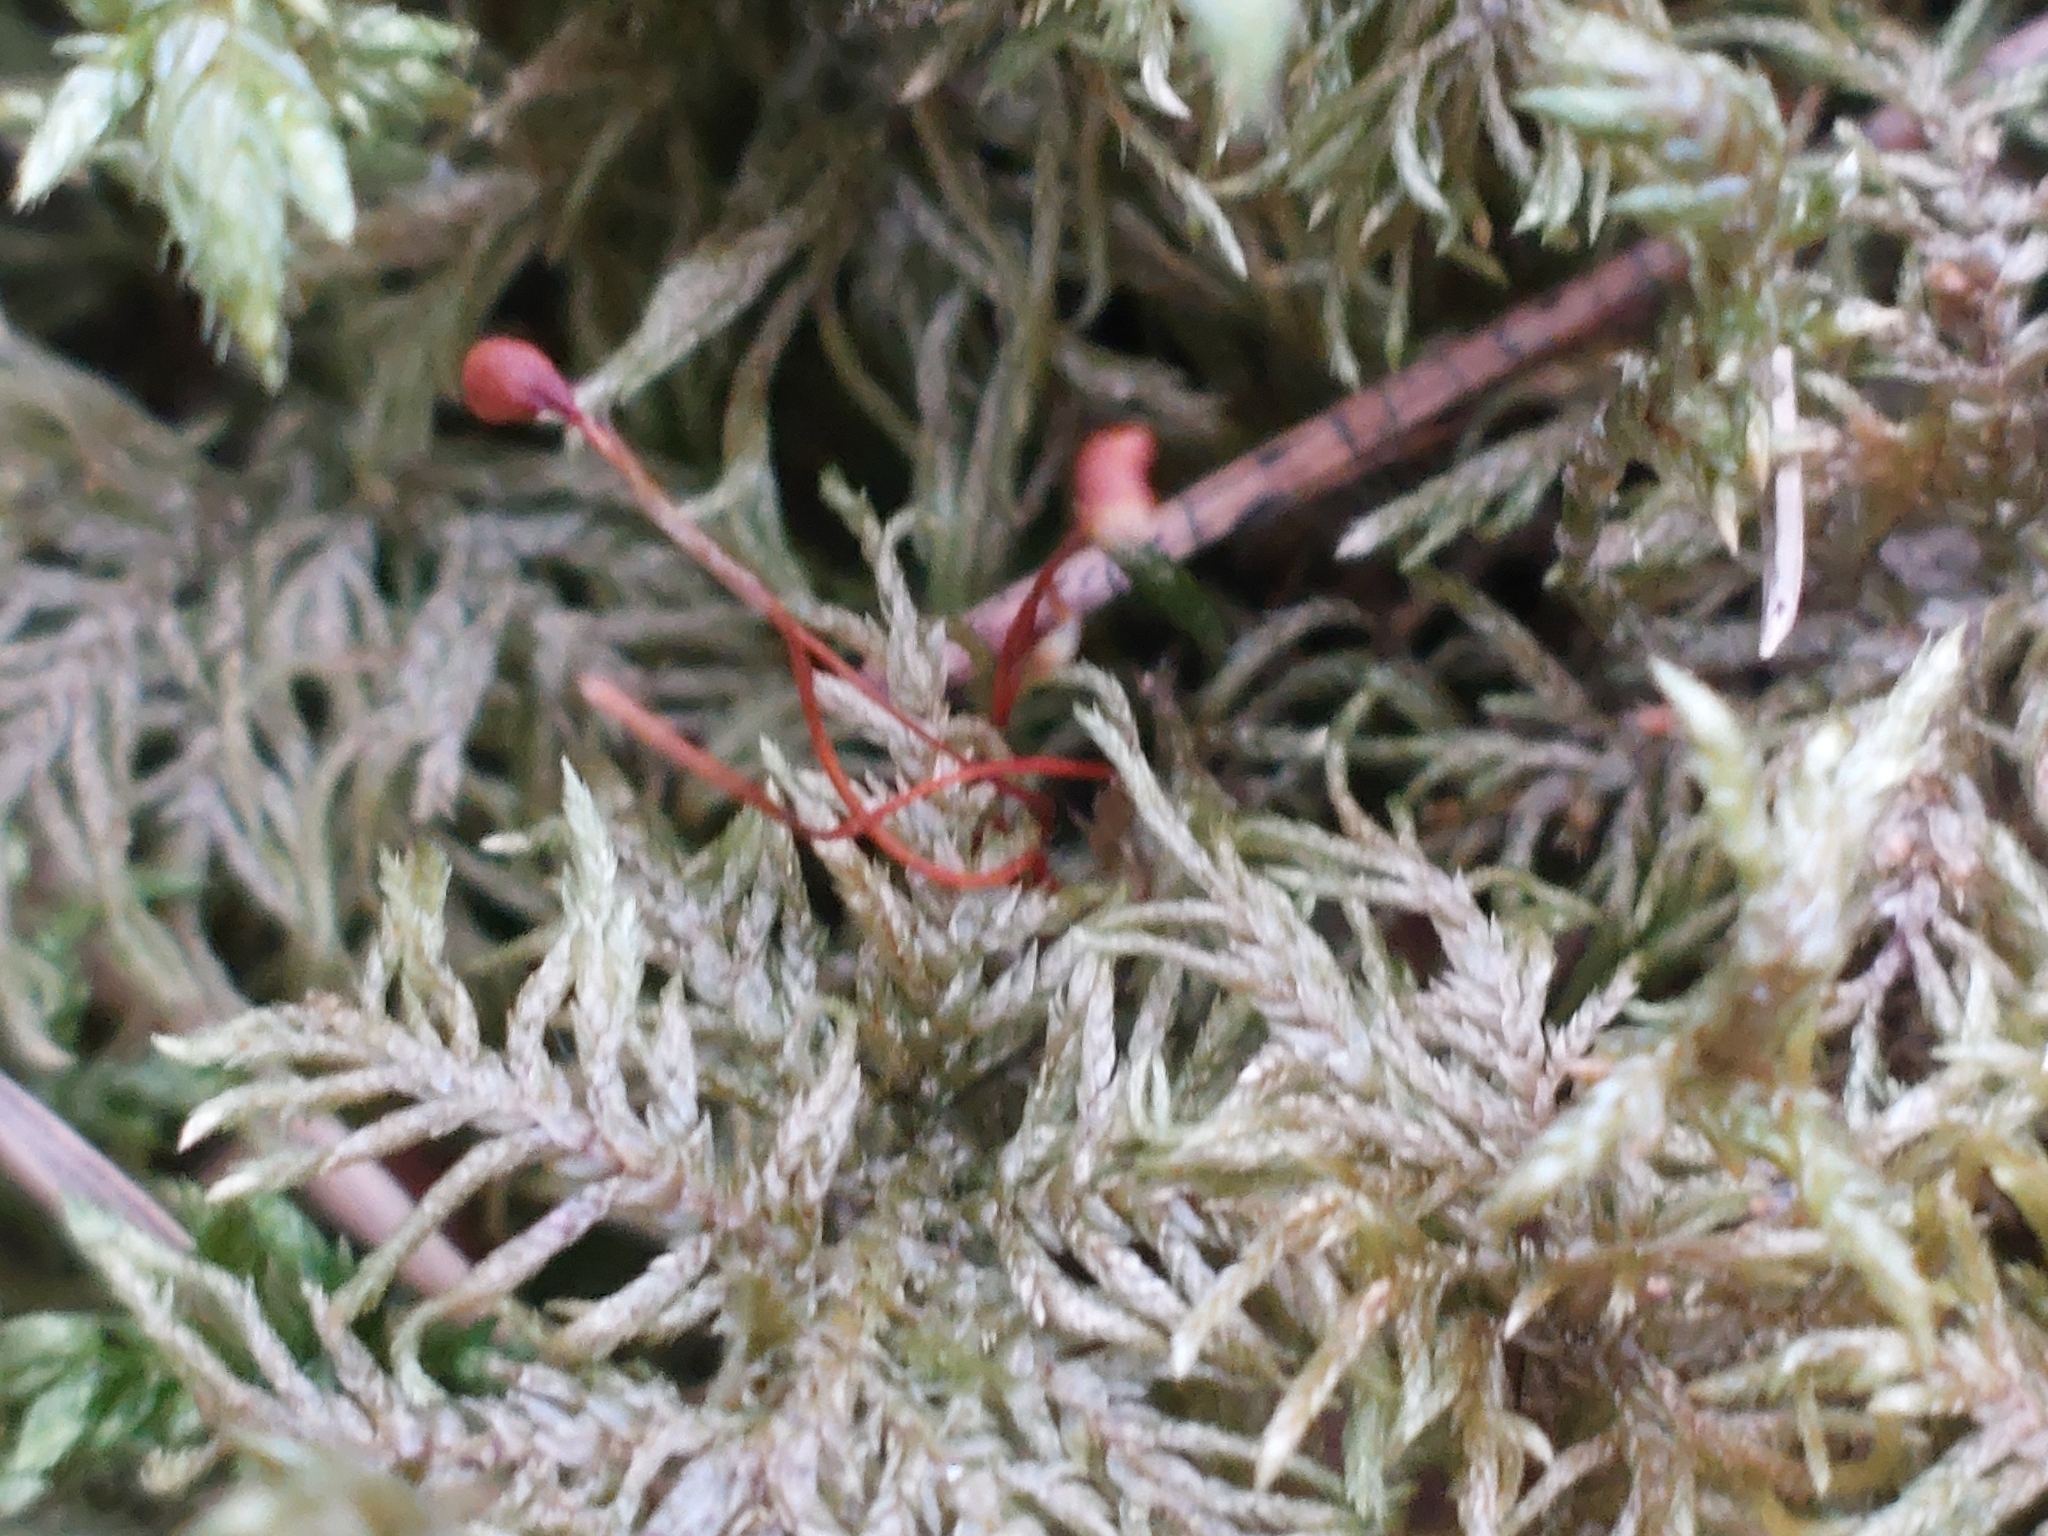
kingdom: Plantae
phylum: Bryophyta
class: Bryopsida
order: Hypnales
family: Hylocomiaceae
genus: Hylocomium
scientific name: Hylocomium splendens
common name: Stairstep moss
